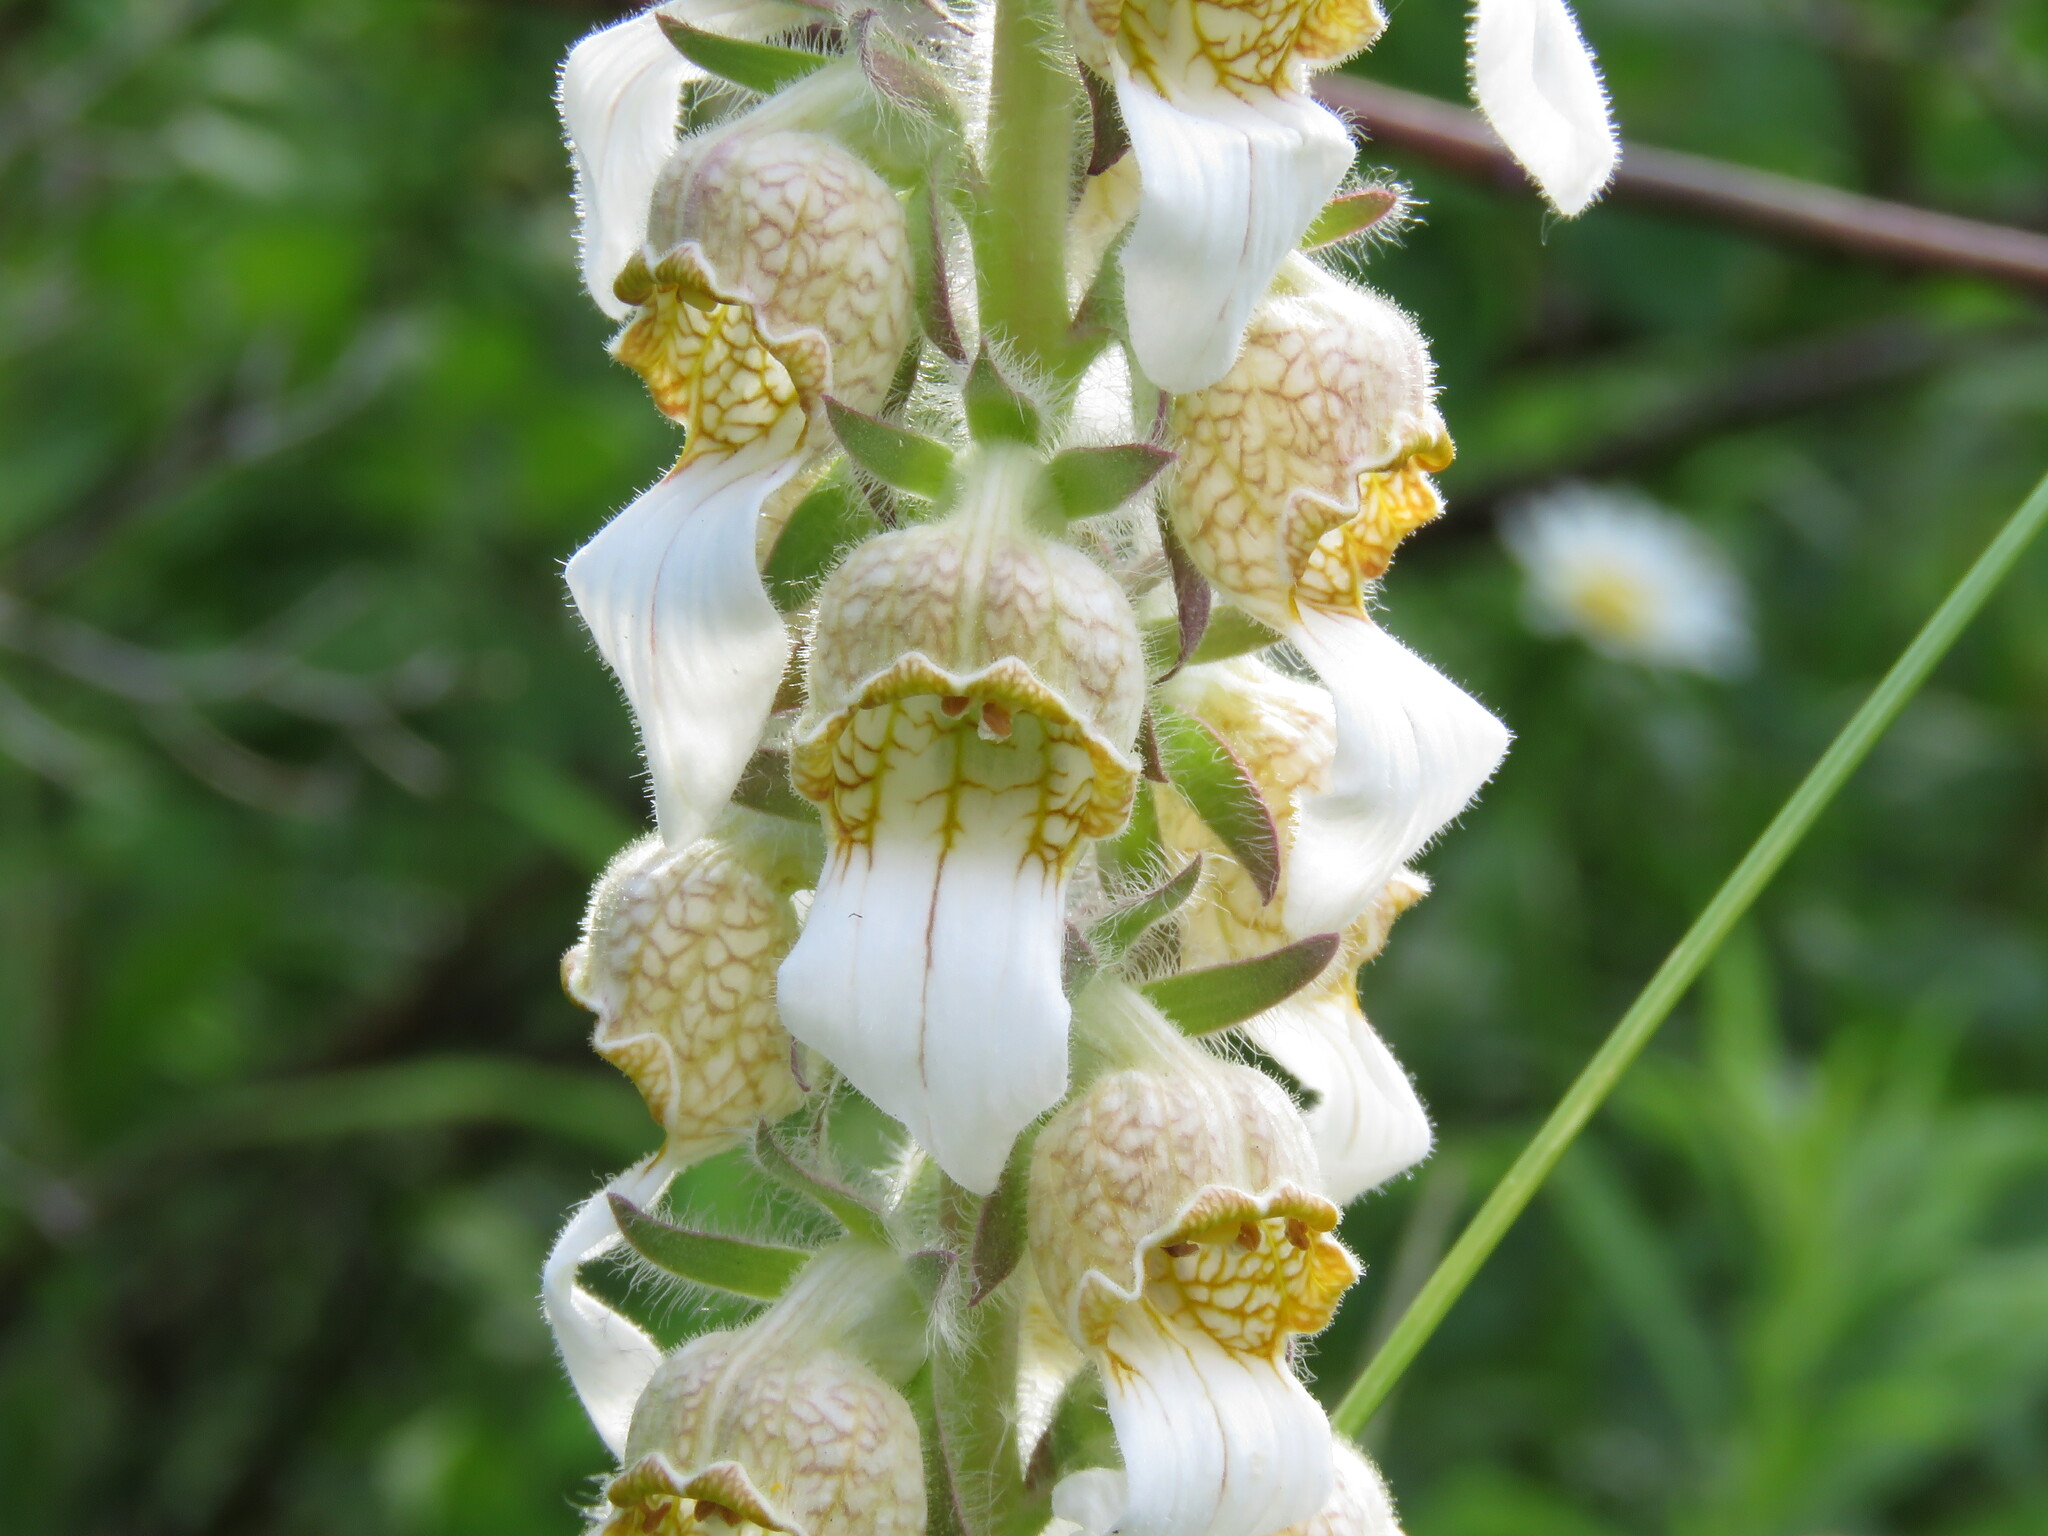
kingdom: Plantae
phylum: Tracheophyta
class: Magnoliopsida
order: Lamiales
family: Plantaginaceae
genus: Digitalis
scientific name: Digitalis lanata
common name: Grecian foxglove
